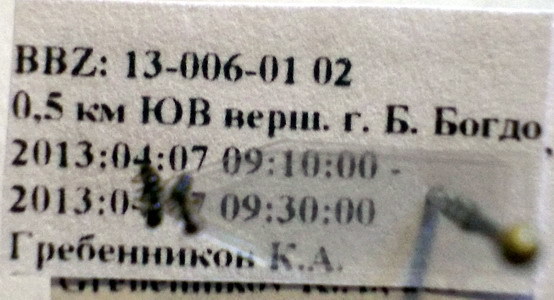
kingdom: Animalia
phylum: Arthropoda
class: Insecta
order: Hymenoptera
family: Formicidae
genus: Plagiolepis
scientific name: Plagiolepis pallescens
